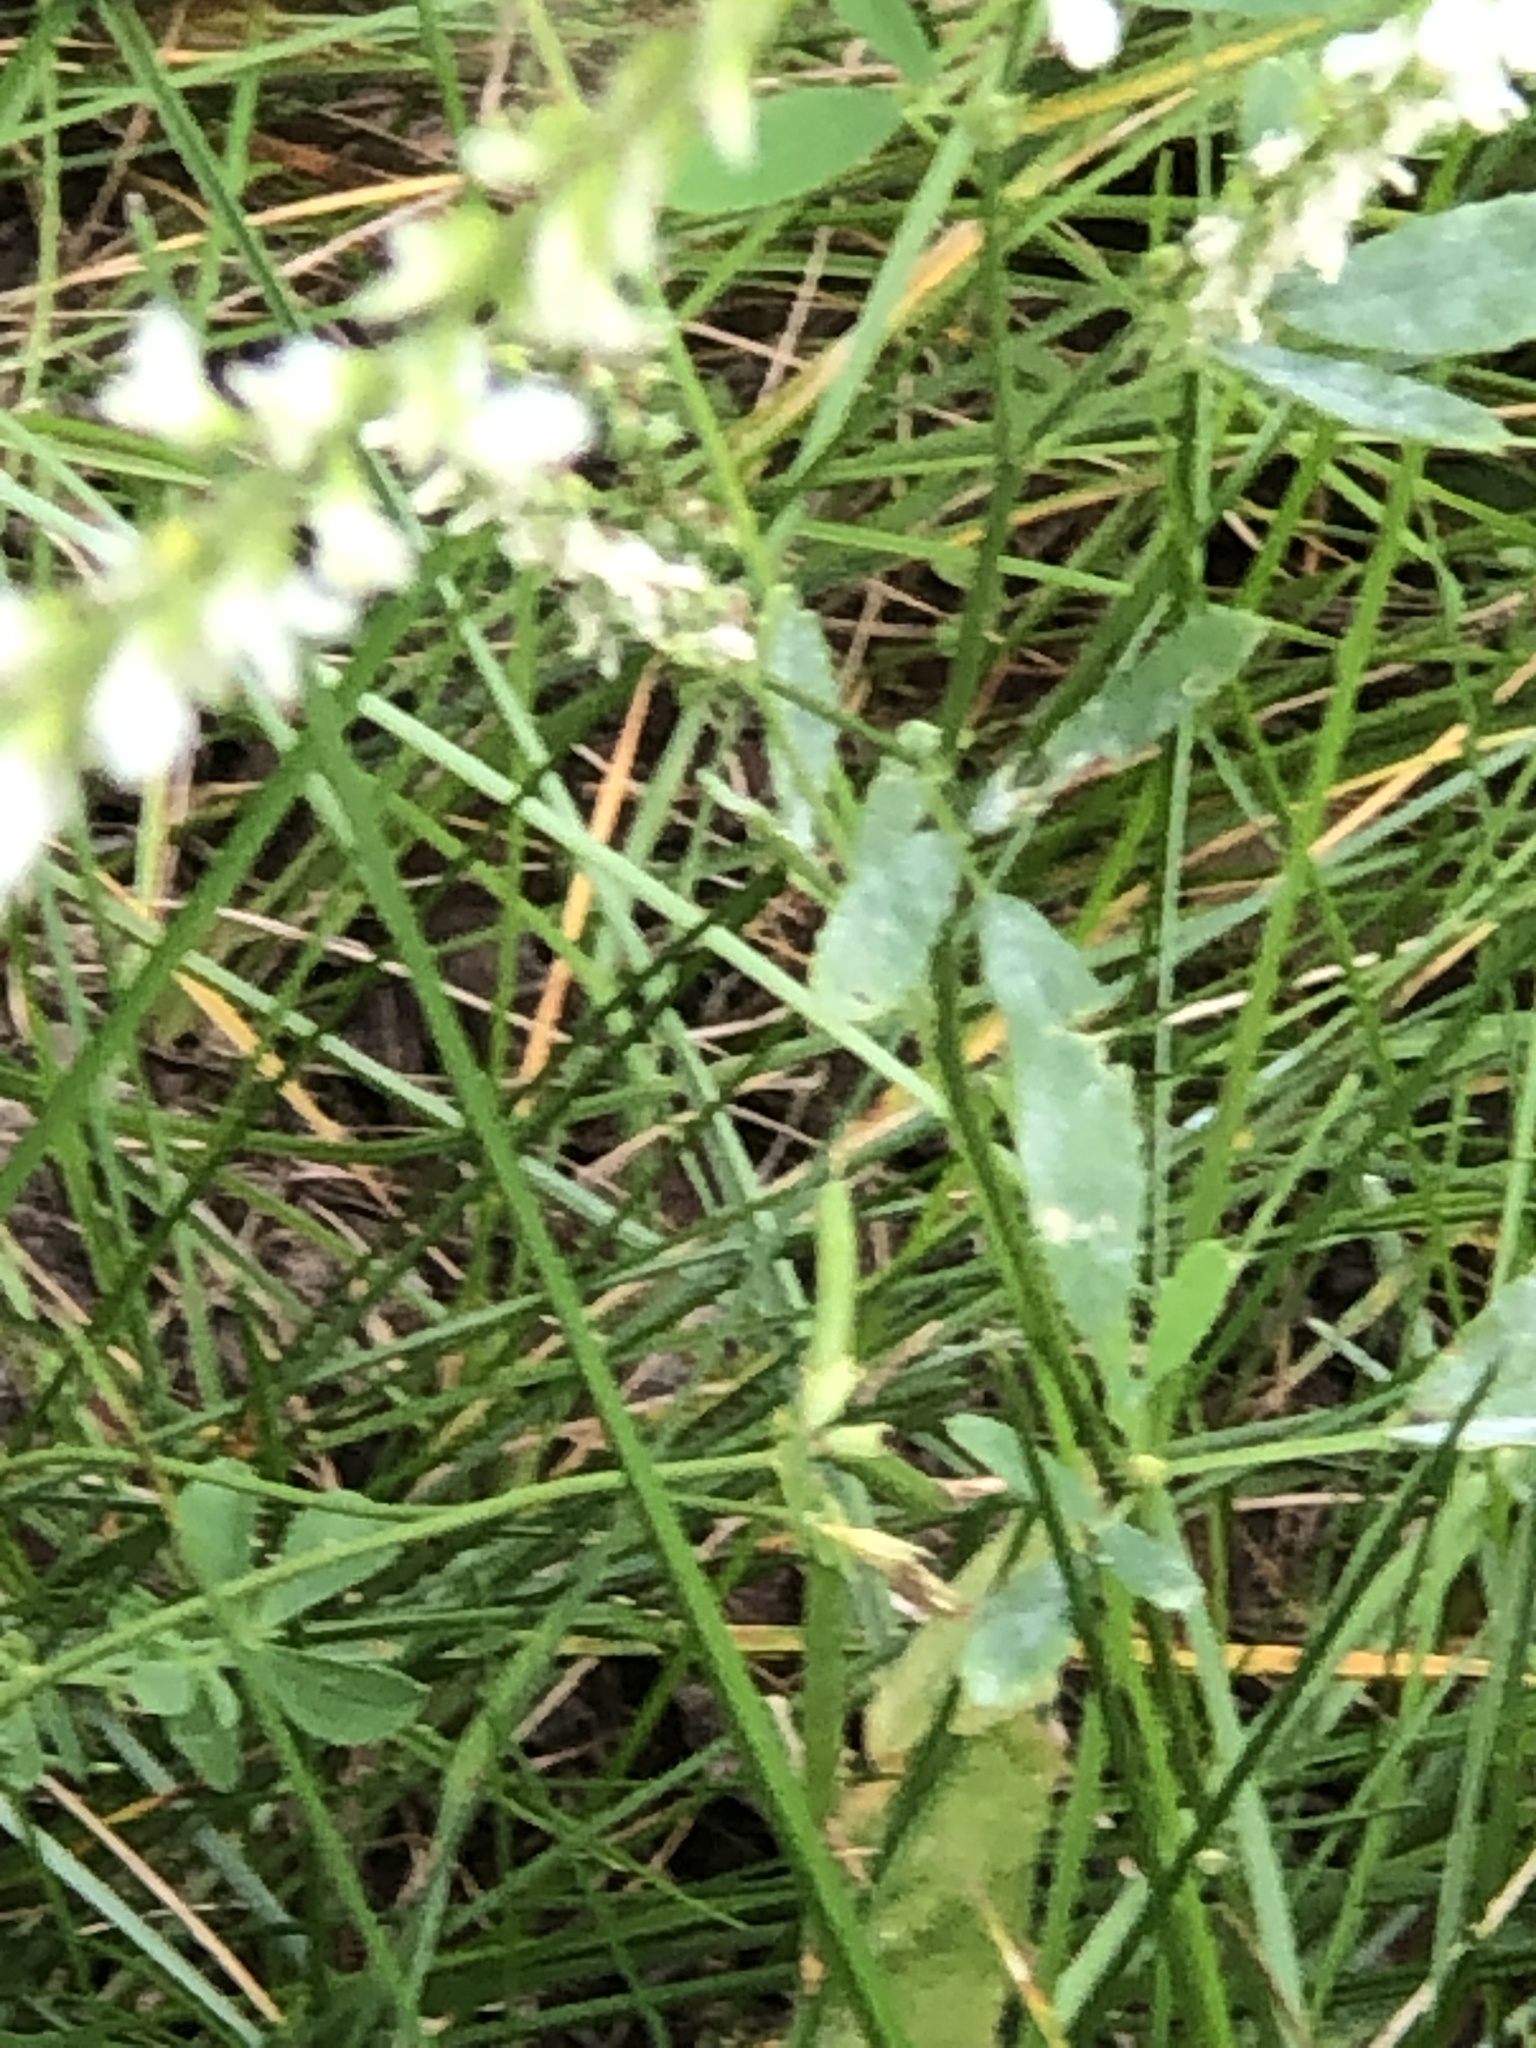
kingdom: Plantae
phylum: Tracheophyta
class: Magnoliopsida
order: Fabales
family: Fabaceae
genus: Melilotus
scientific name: Melilotus albus
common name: White melilot
